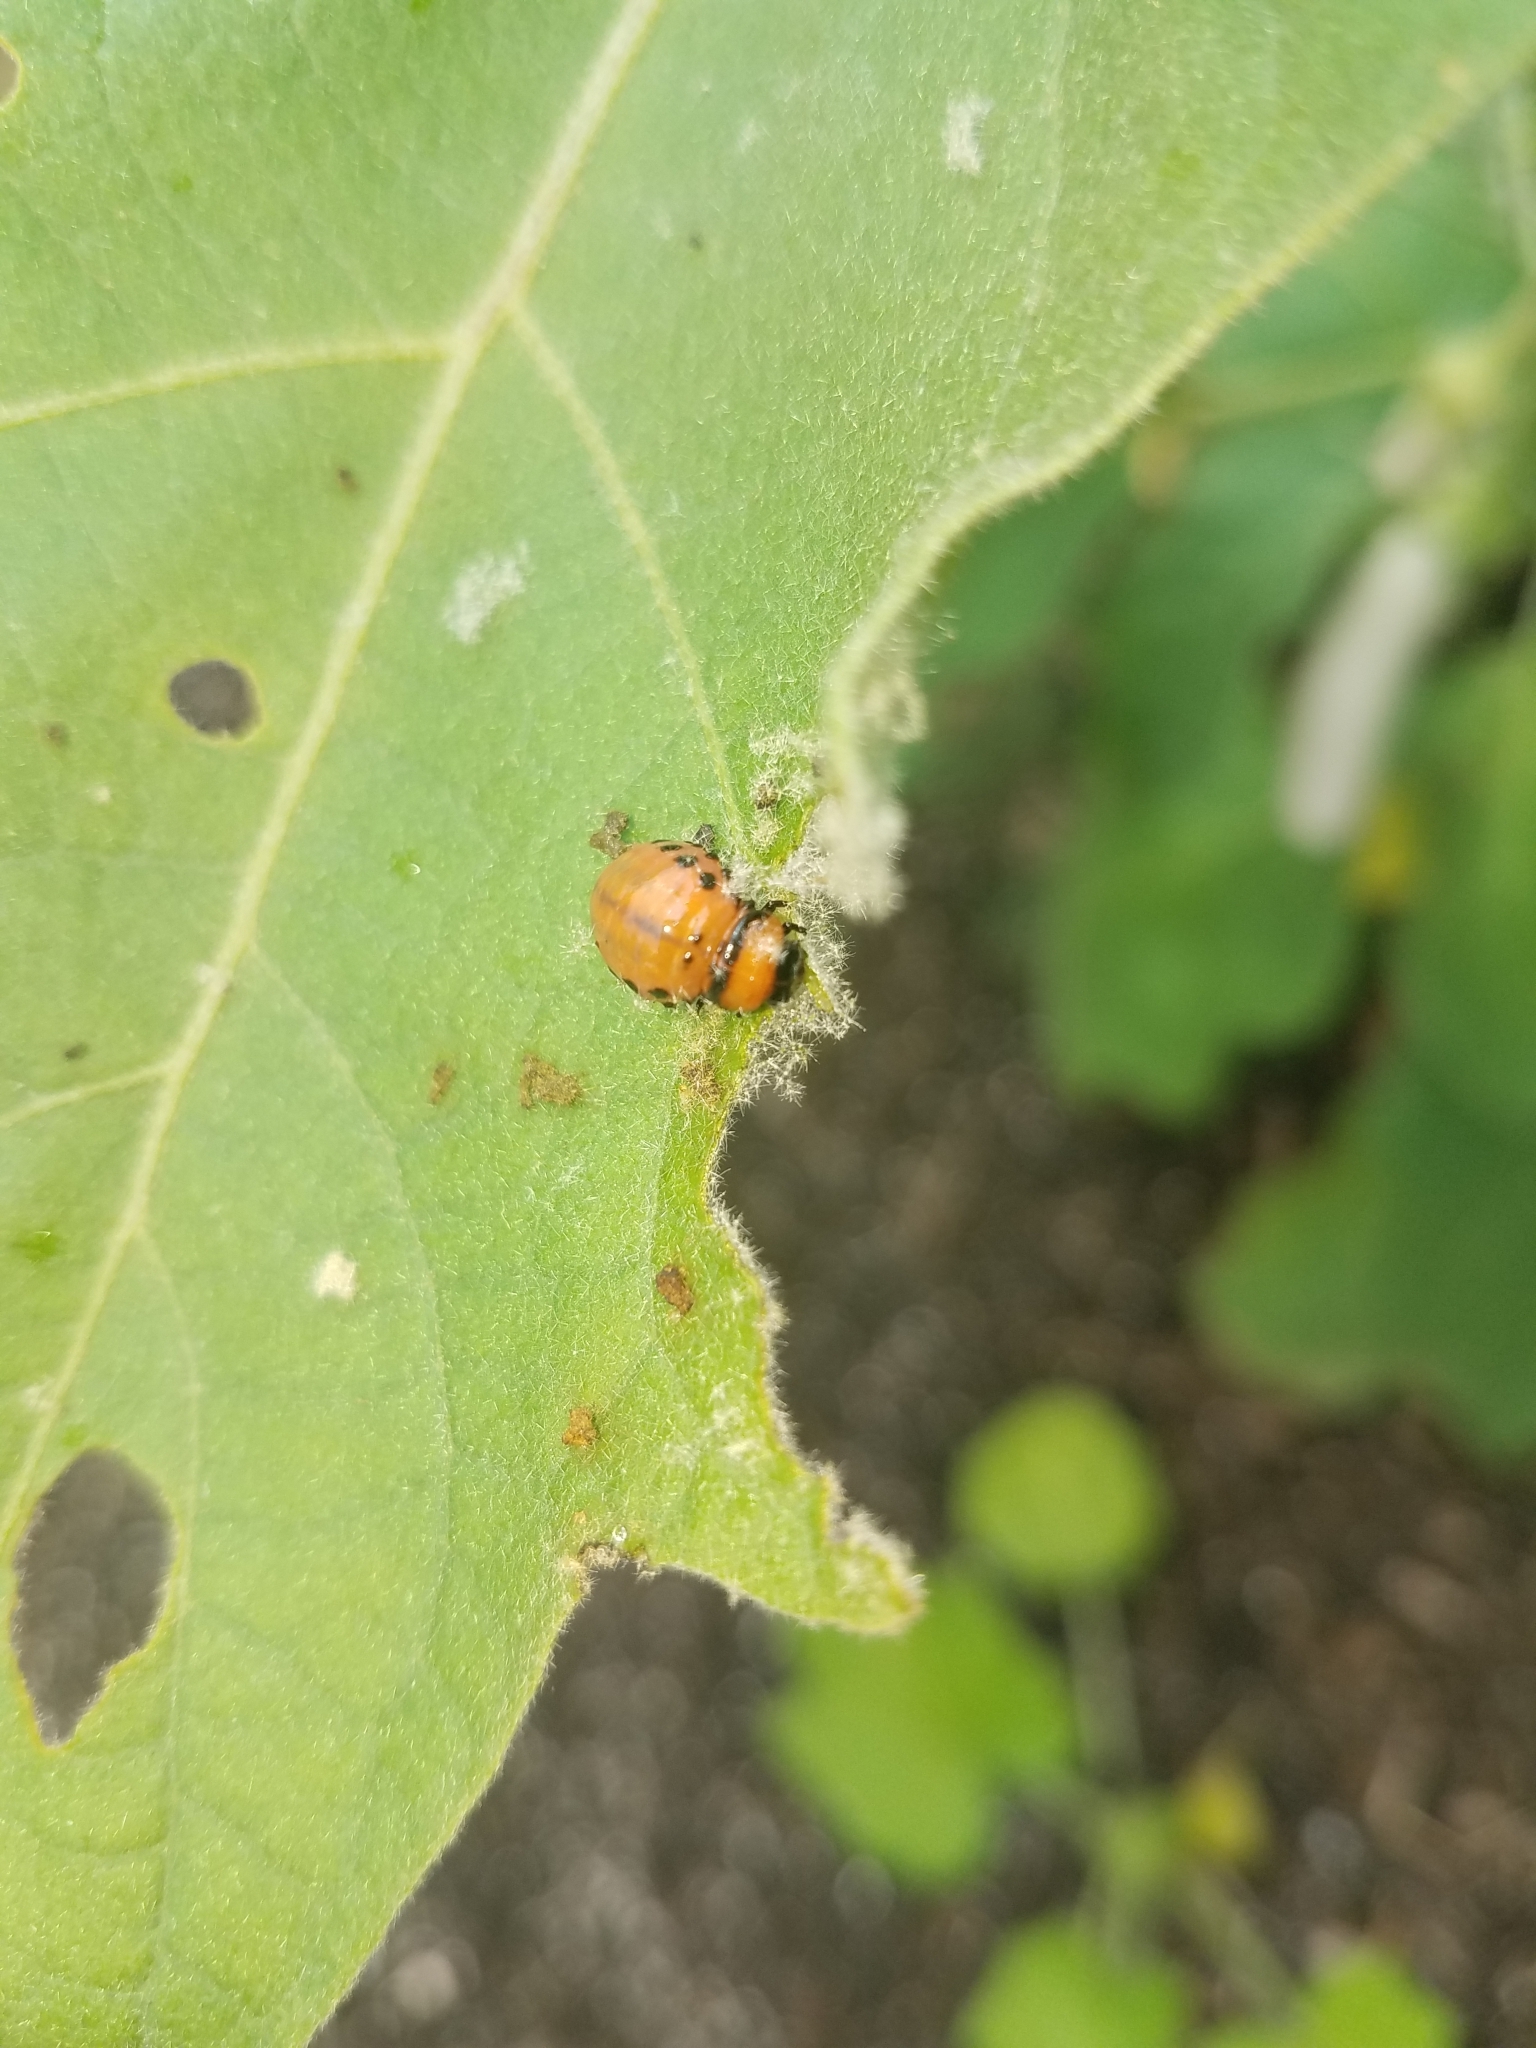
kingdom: Animalia
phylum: Arthropoda
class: Insecta
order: Coleoptera
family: Chrysomelidae
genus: Leptinotarsa
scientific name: Leptinotarsa decemlineata
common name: Colorado potato beetle
